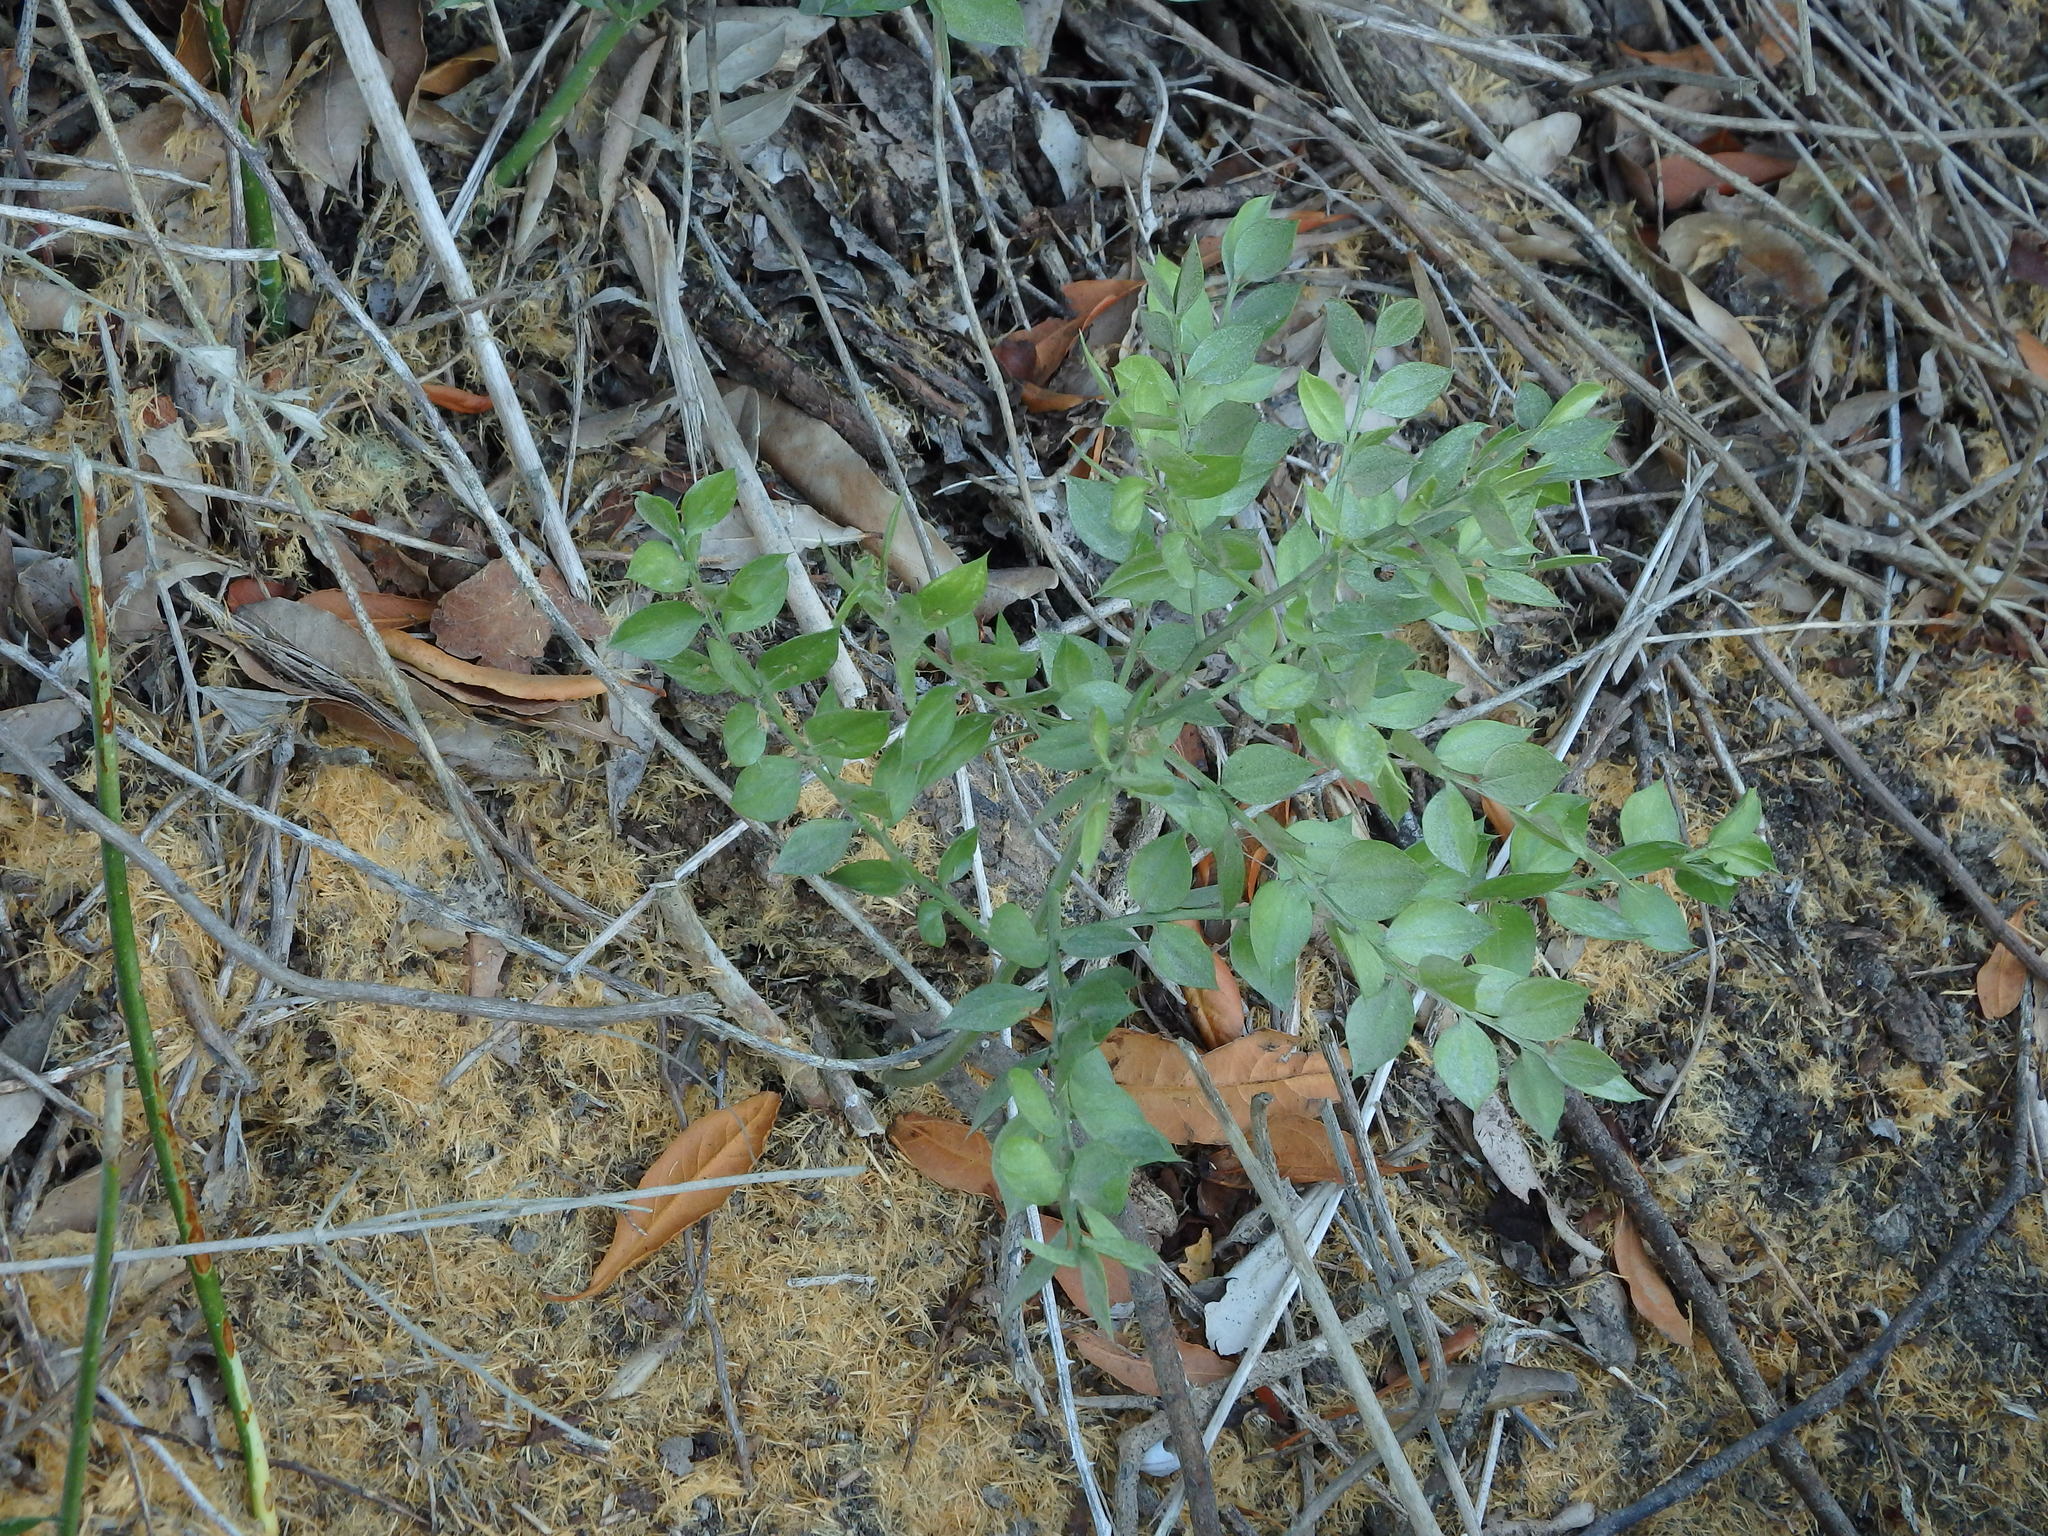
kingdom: Plantae
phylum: Tracheophyta
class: Liliopsida
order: Asparagales
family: Asparagaceae
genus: Ruscus
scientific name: Ruscus aculeatus
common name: Butcher's-broom
